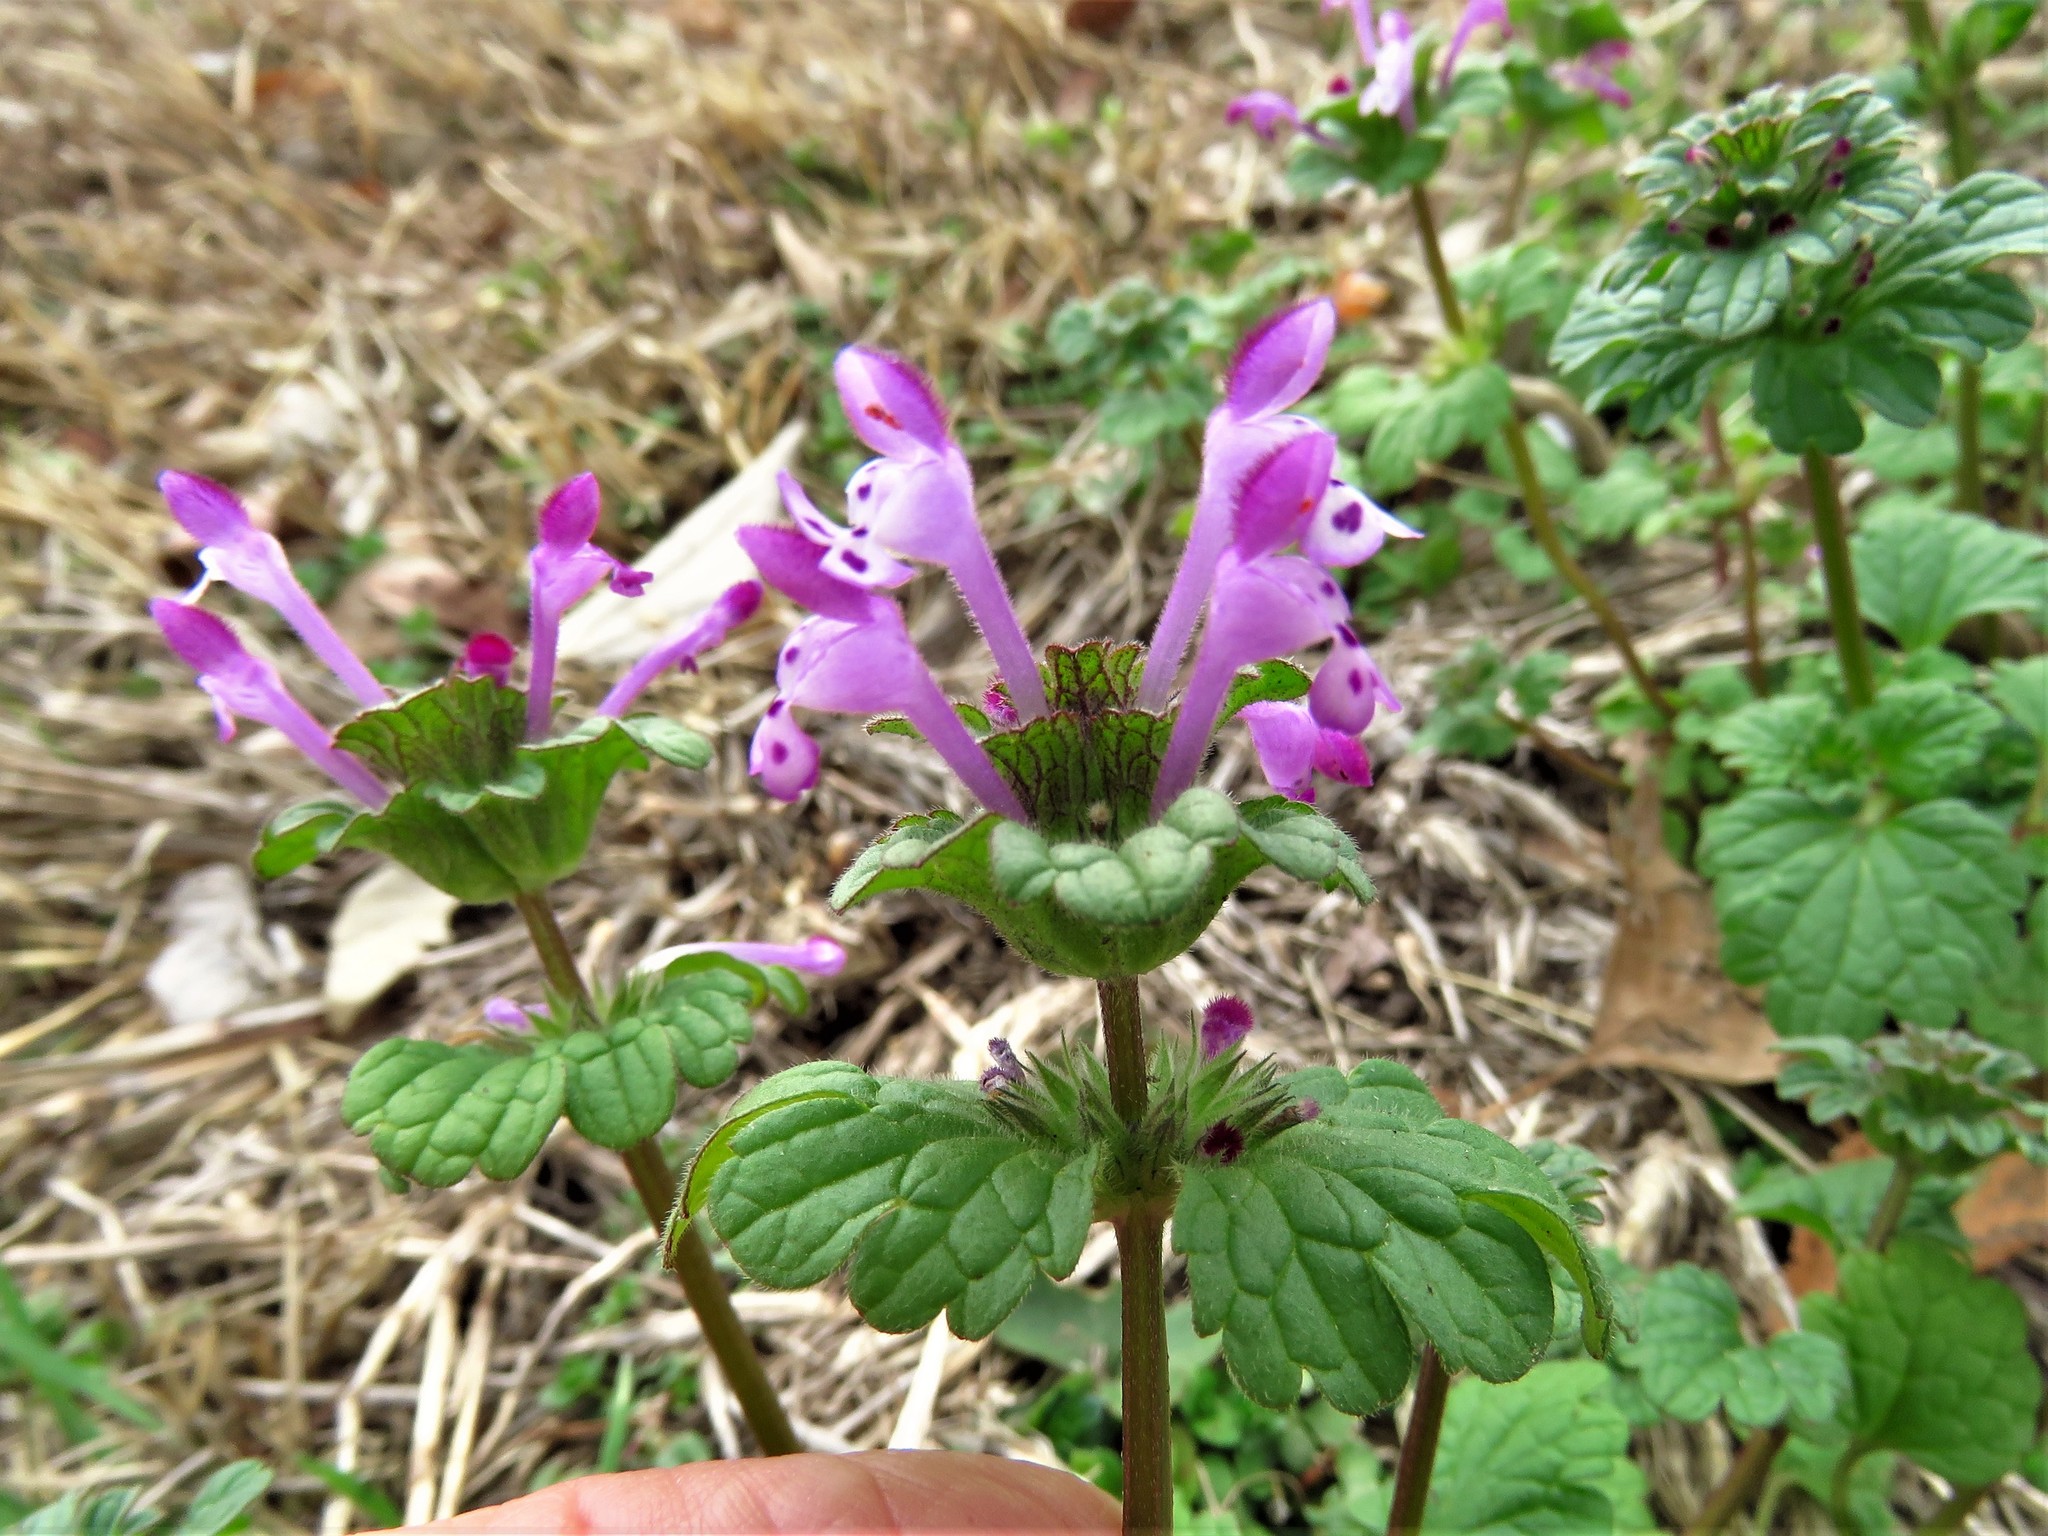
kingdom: Plantae
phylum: Tracheophyta
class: Magnoliopsida
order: Lamiales
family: Lamiaceae
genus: Lamium
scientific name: Lamium amplexicaule
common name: Henbit dead-nettle
